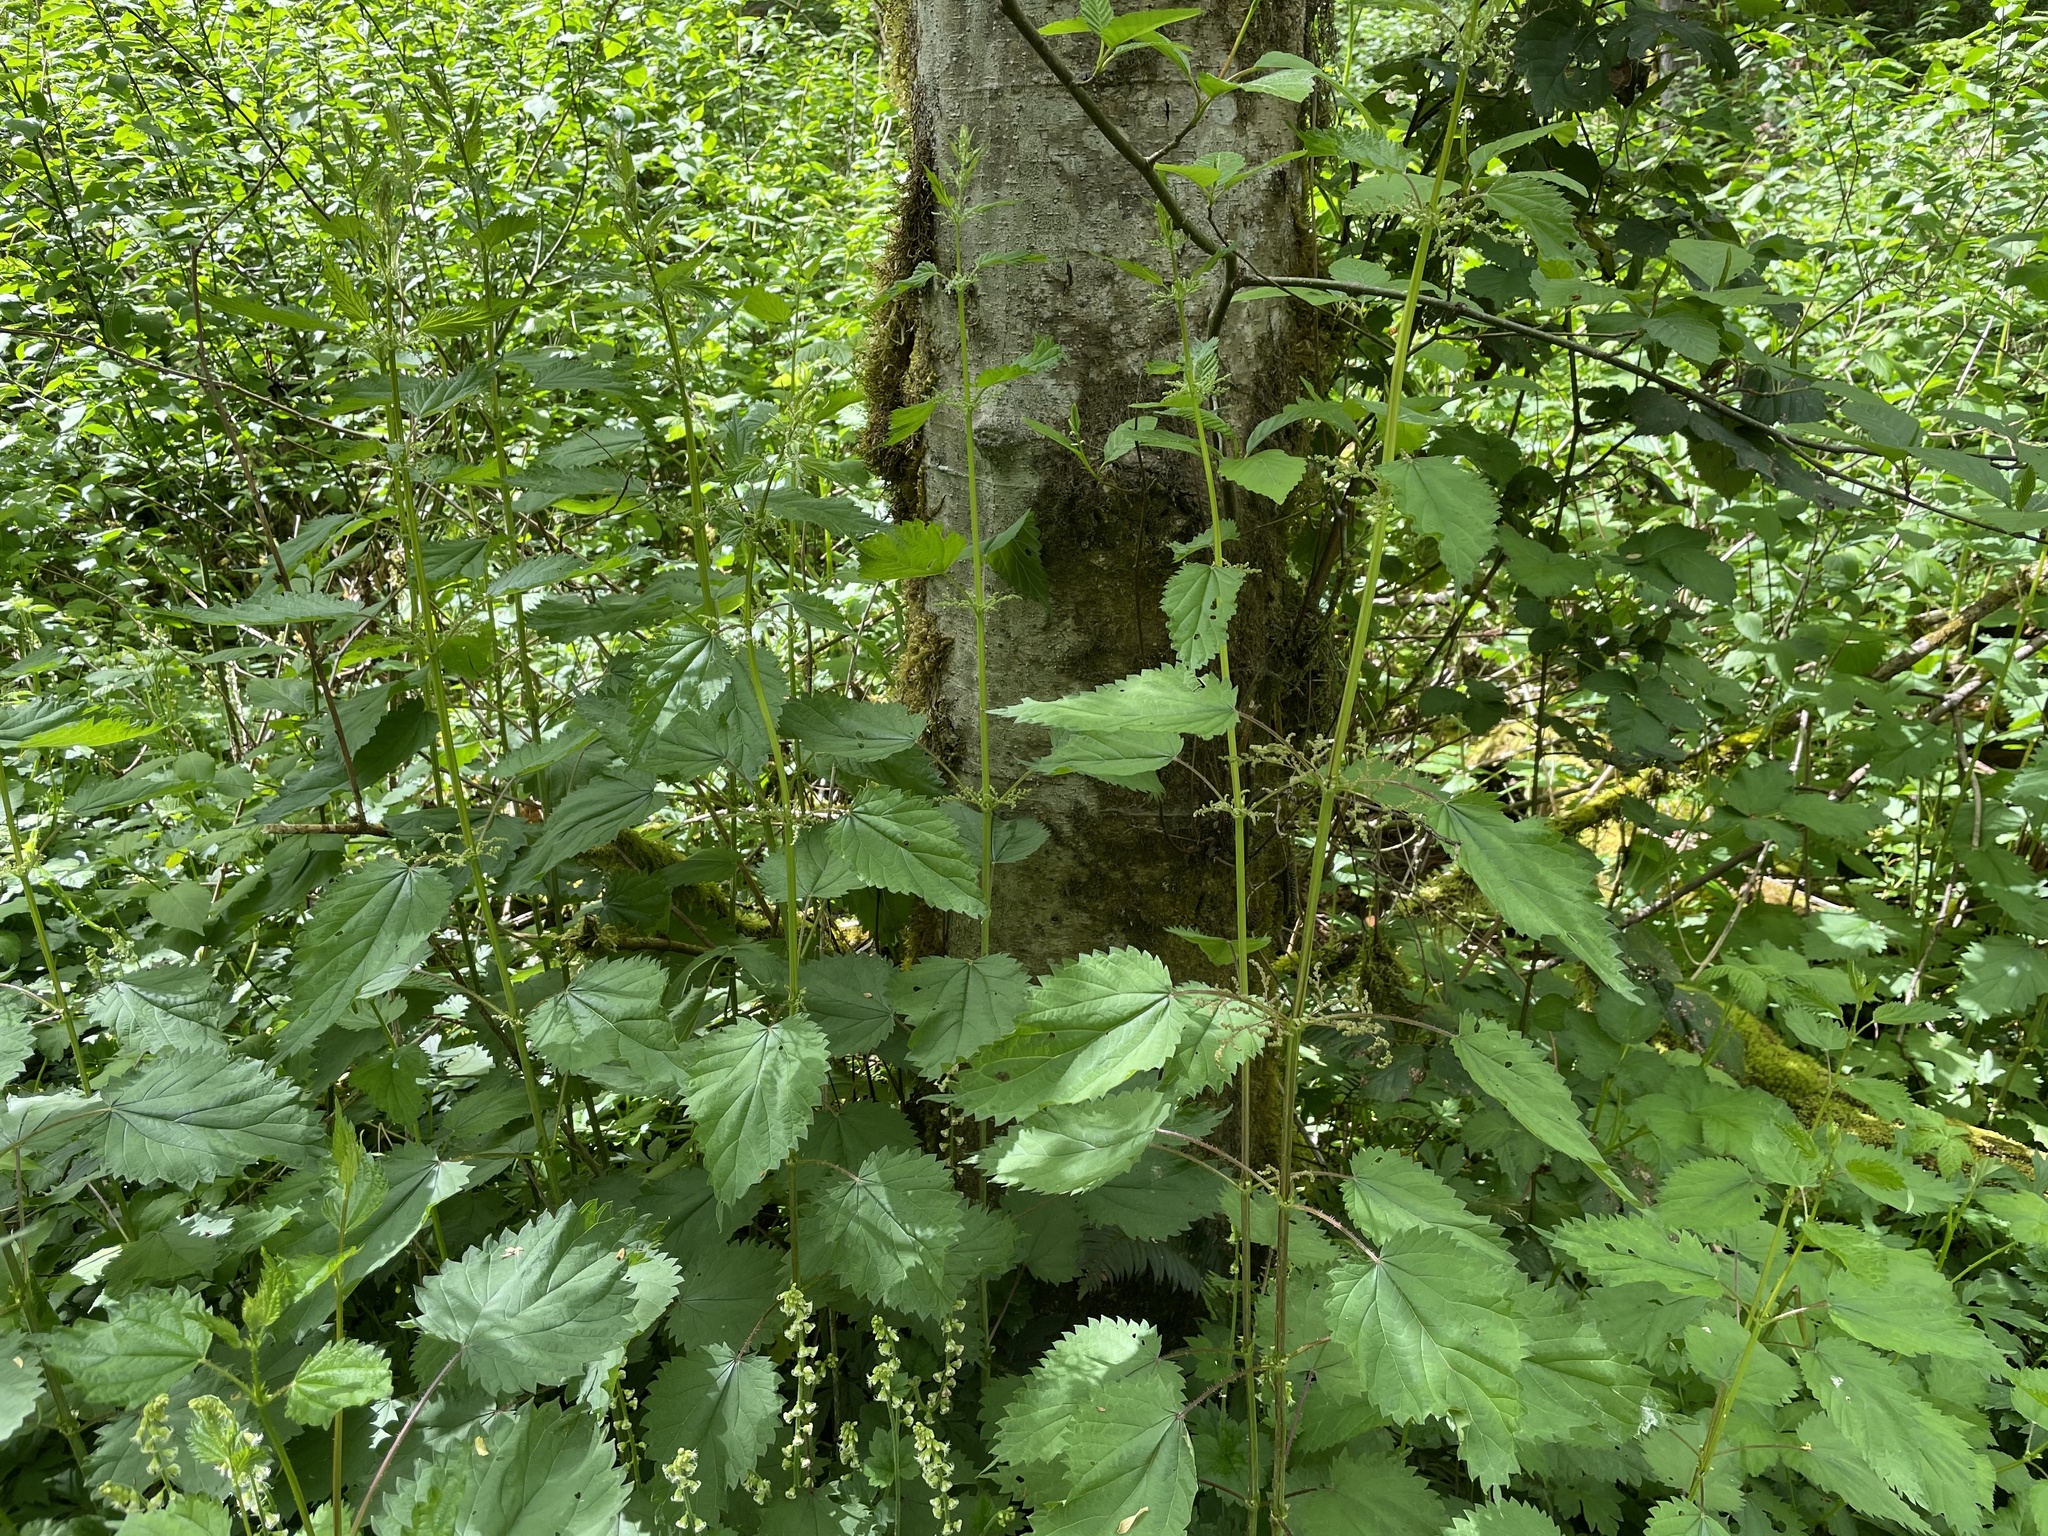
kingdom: Plantae
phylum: Tracheophyta
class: Magnoliopsida
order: Rosales
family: Urticaceae
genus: Urtica
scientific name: Urtica dioica
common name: Common nettle
